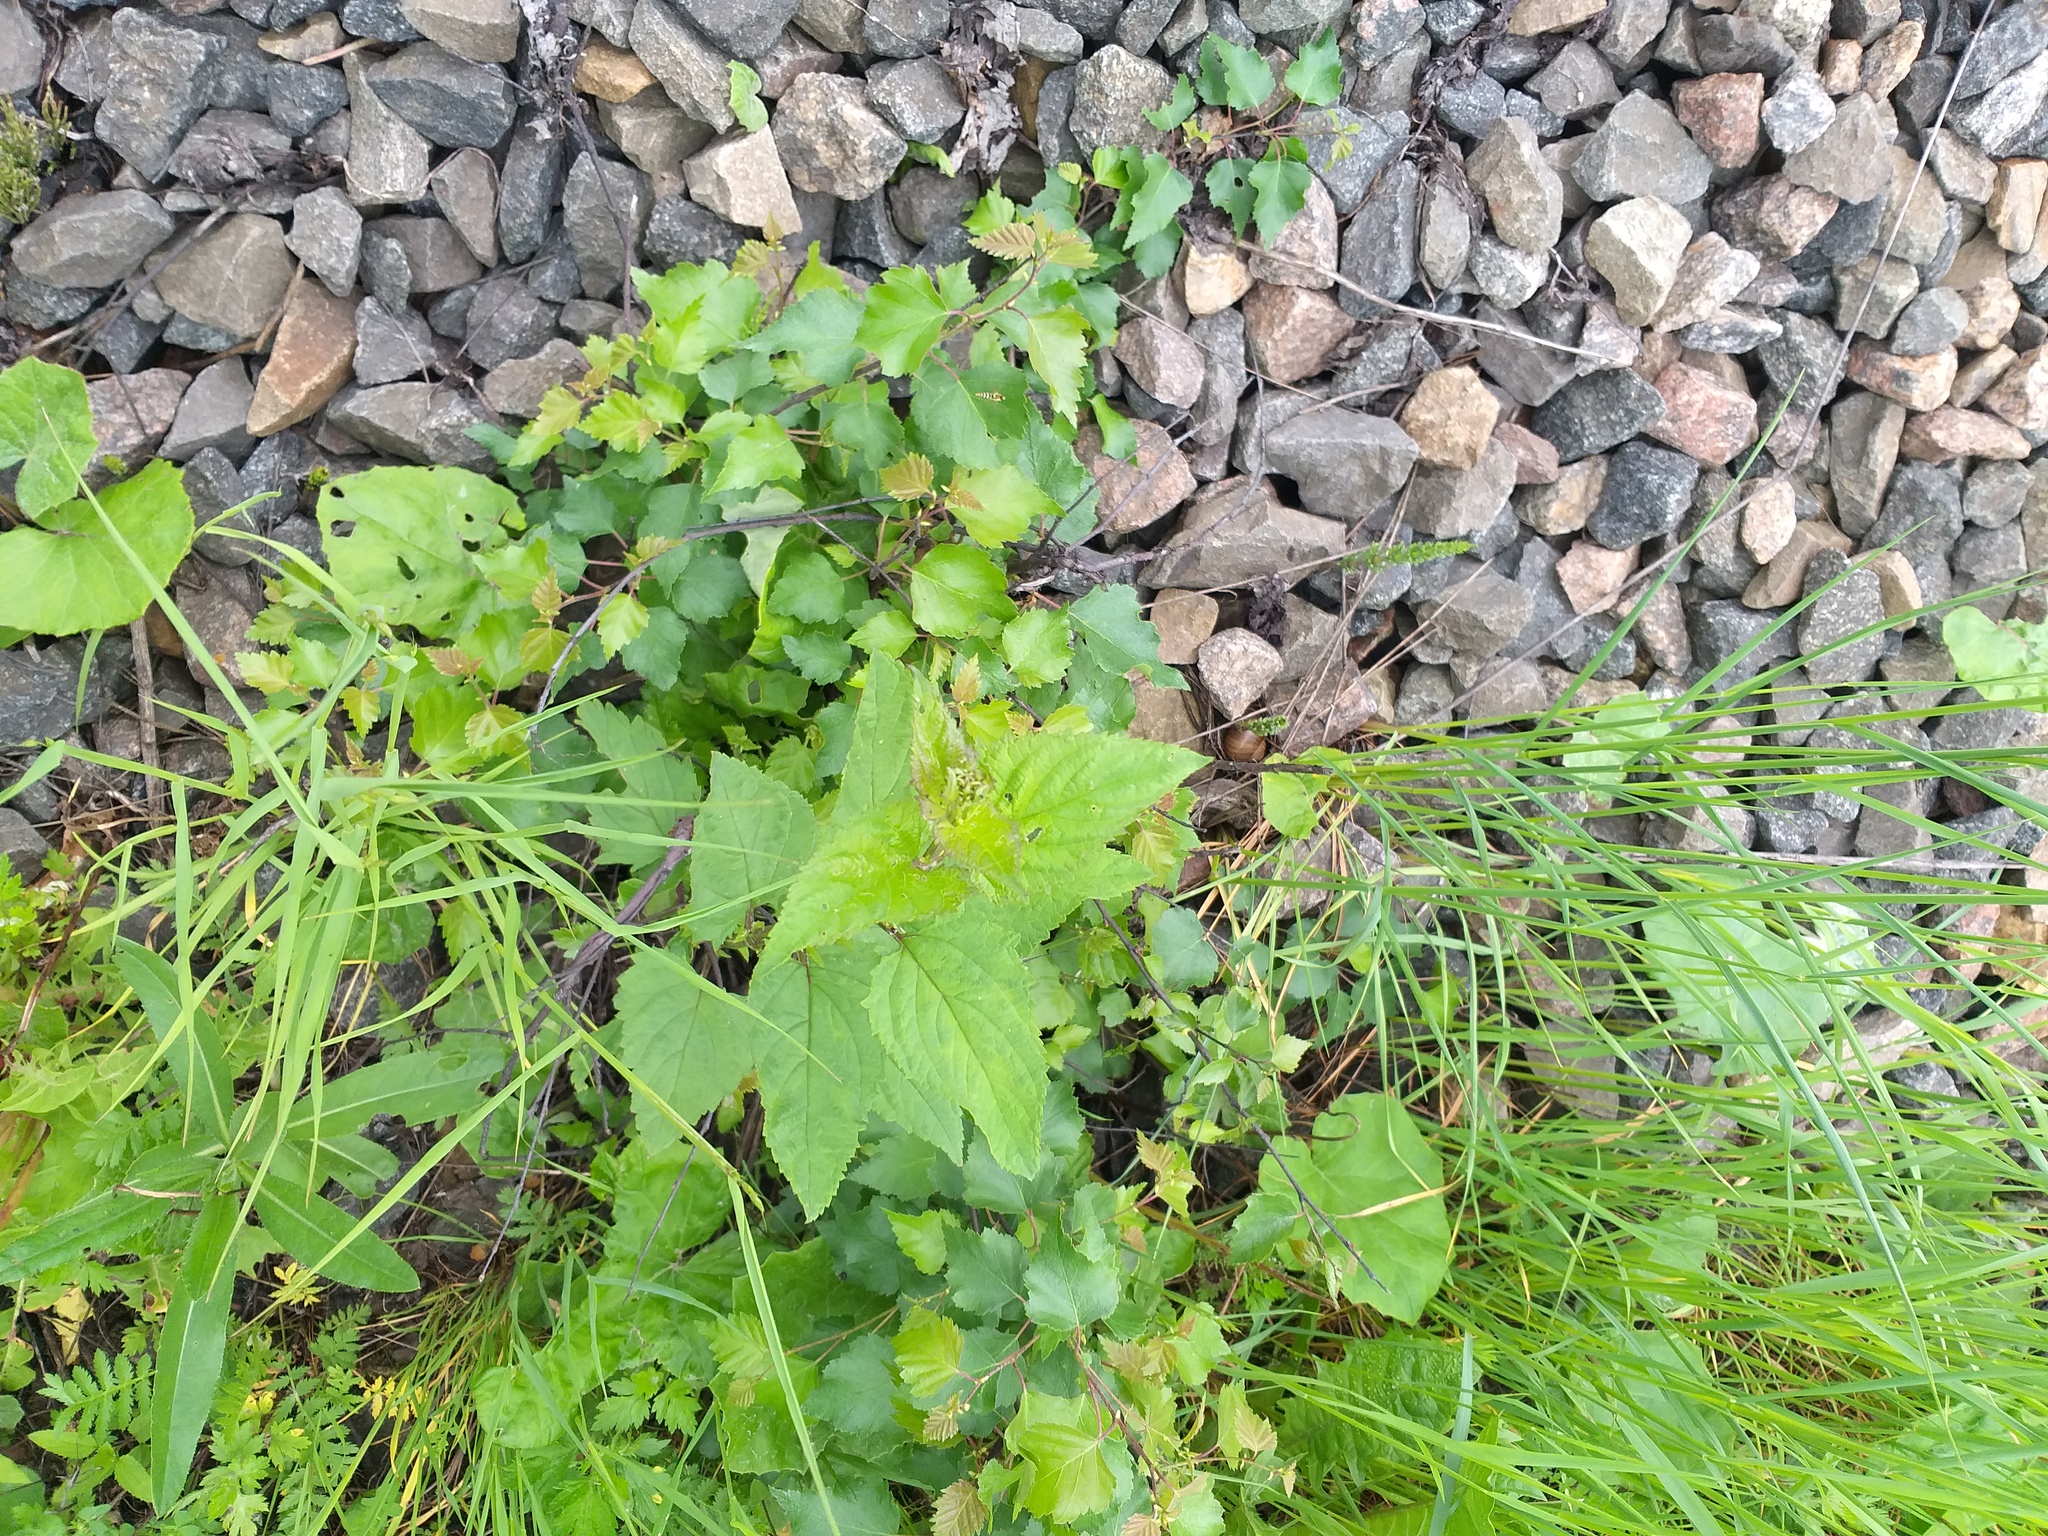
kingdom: Plantae
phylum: Tracheophyta
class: Magnoliopsida
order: Lamiales
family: Scrophulariaceae
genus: Scrophularia
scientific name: Scrophularia nodosa
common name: Common figwort
